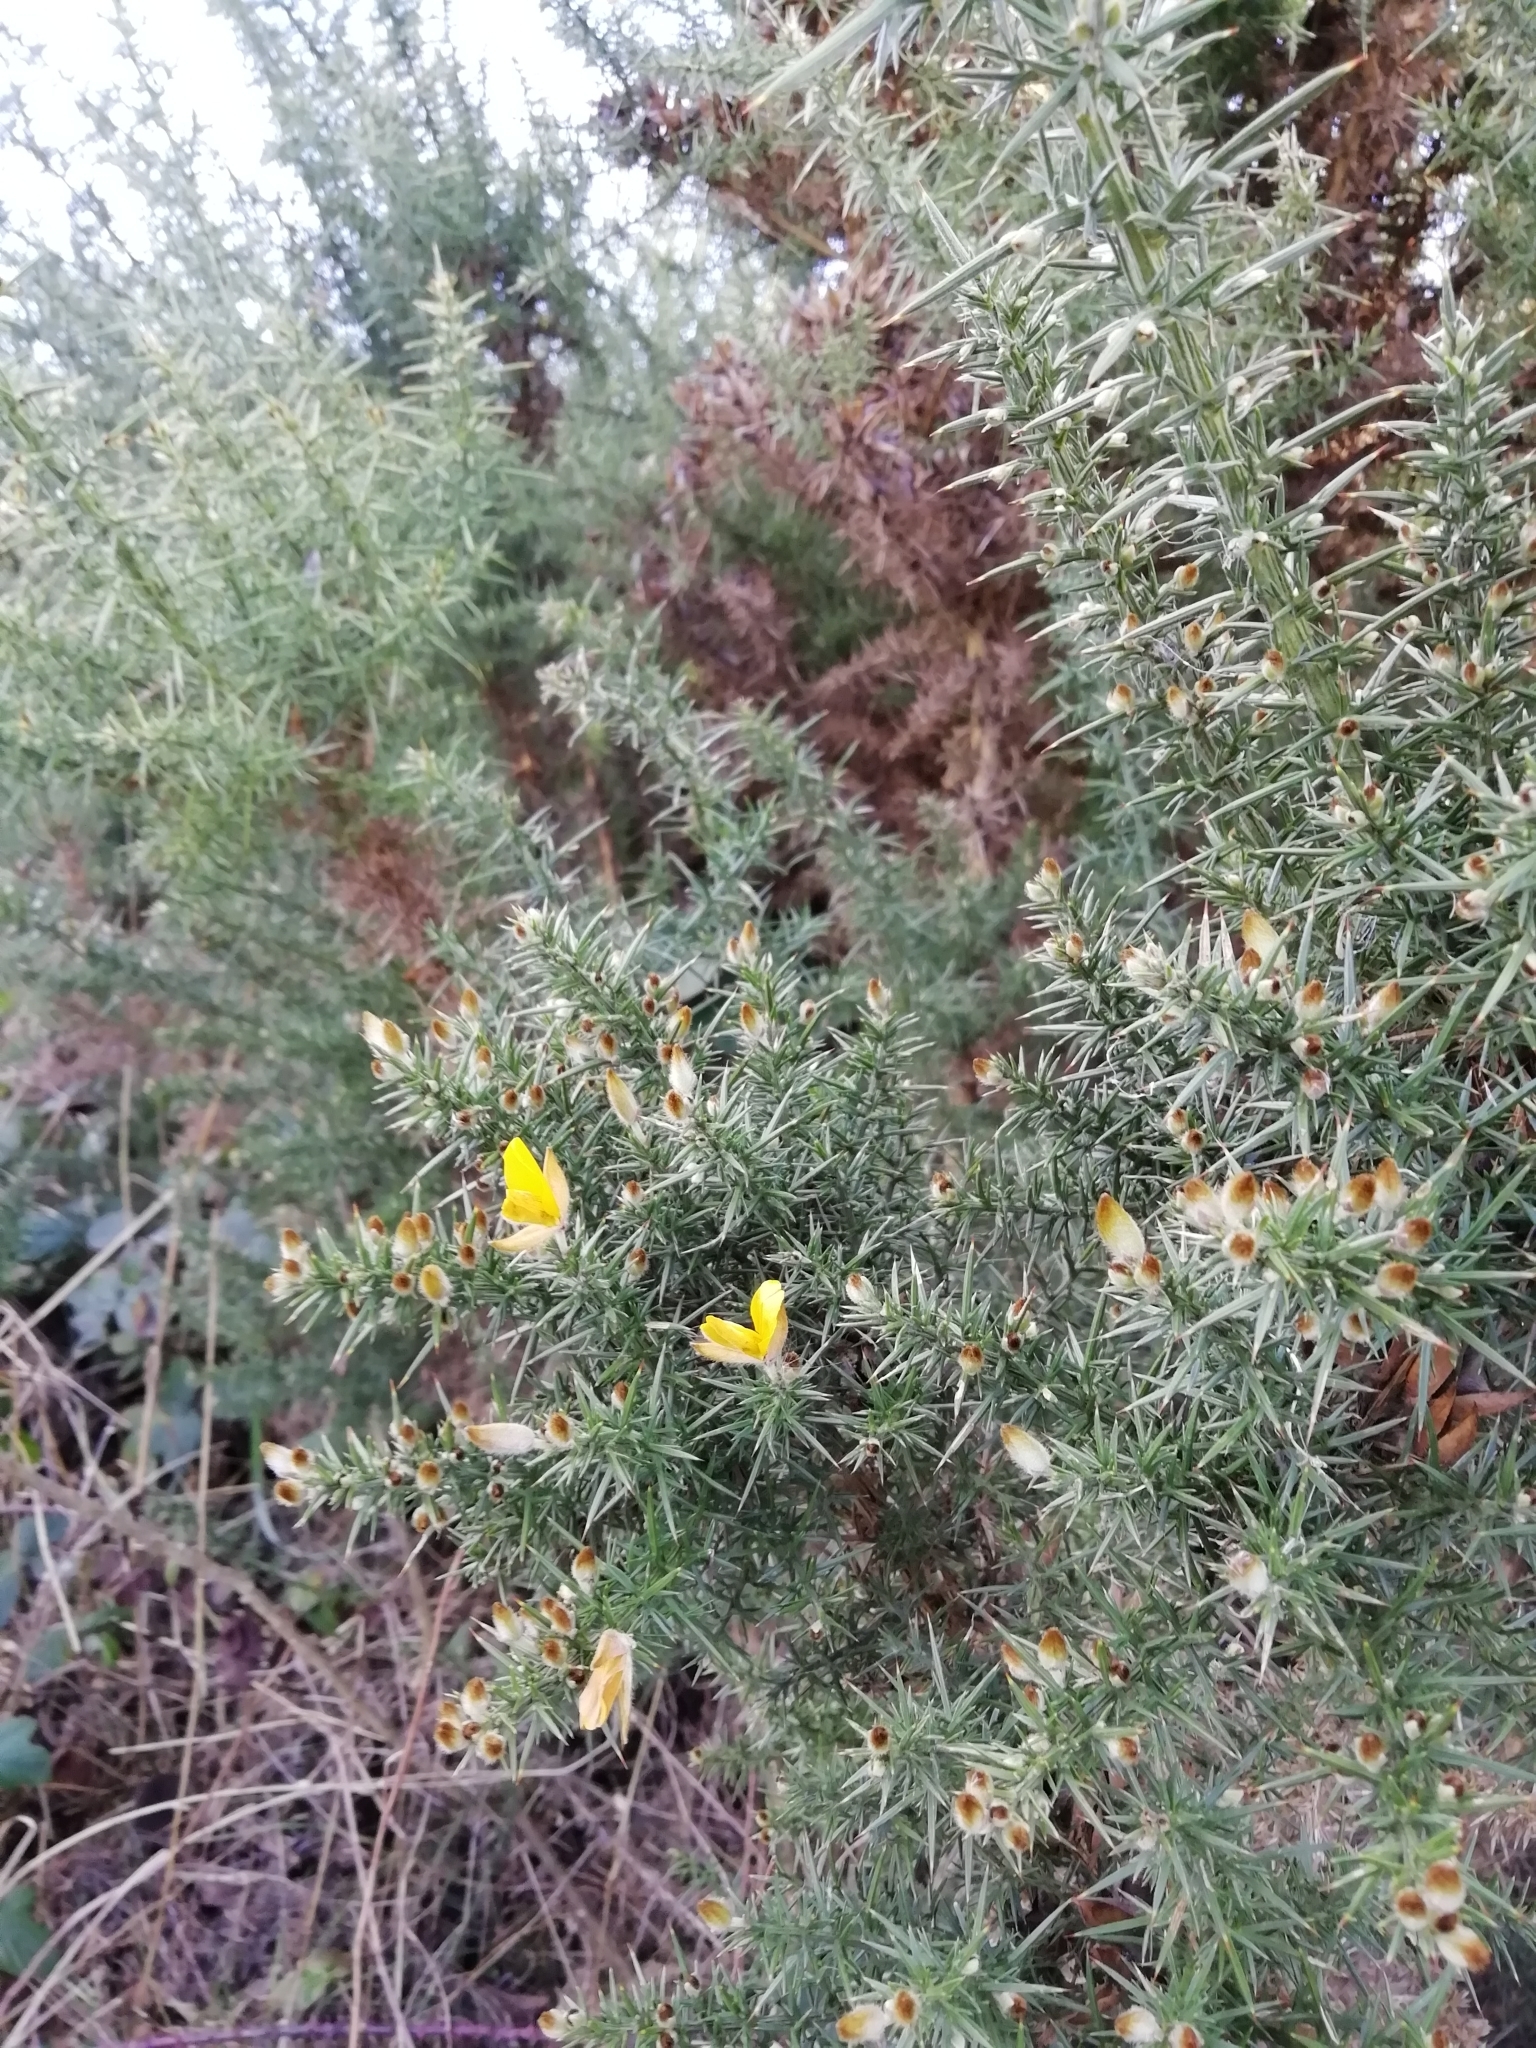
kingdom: Plantae
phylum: Tracheophyta
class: Magnoliopsida
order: Fabales
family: Fabaceae
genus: Ulex
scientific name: Ulex europaeus
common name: Common gorse
